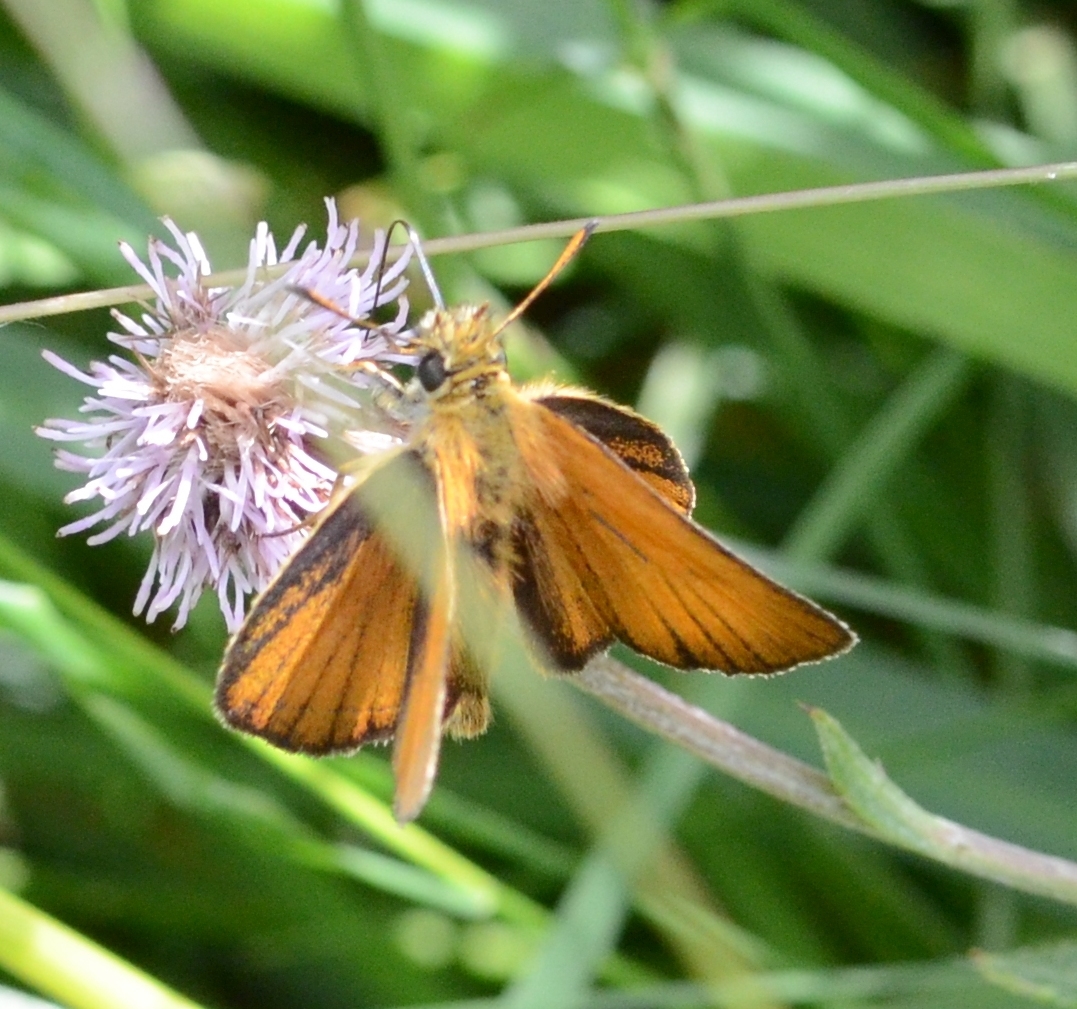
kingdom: Animalia
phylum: Arthropoda
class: Insecta
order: Lepidoptera
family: Hesperiidae
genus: Thymelicus
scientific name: Thymelicus lineola
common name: Essex skipper
